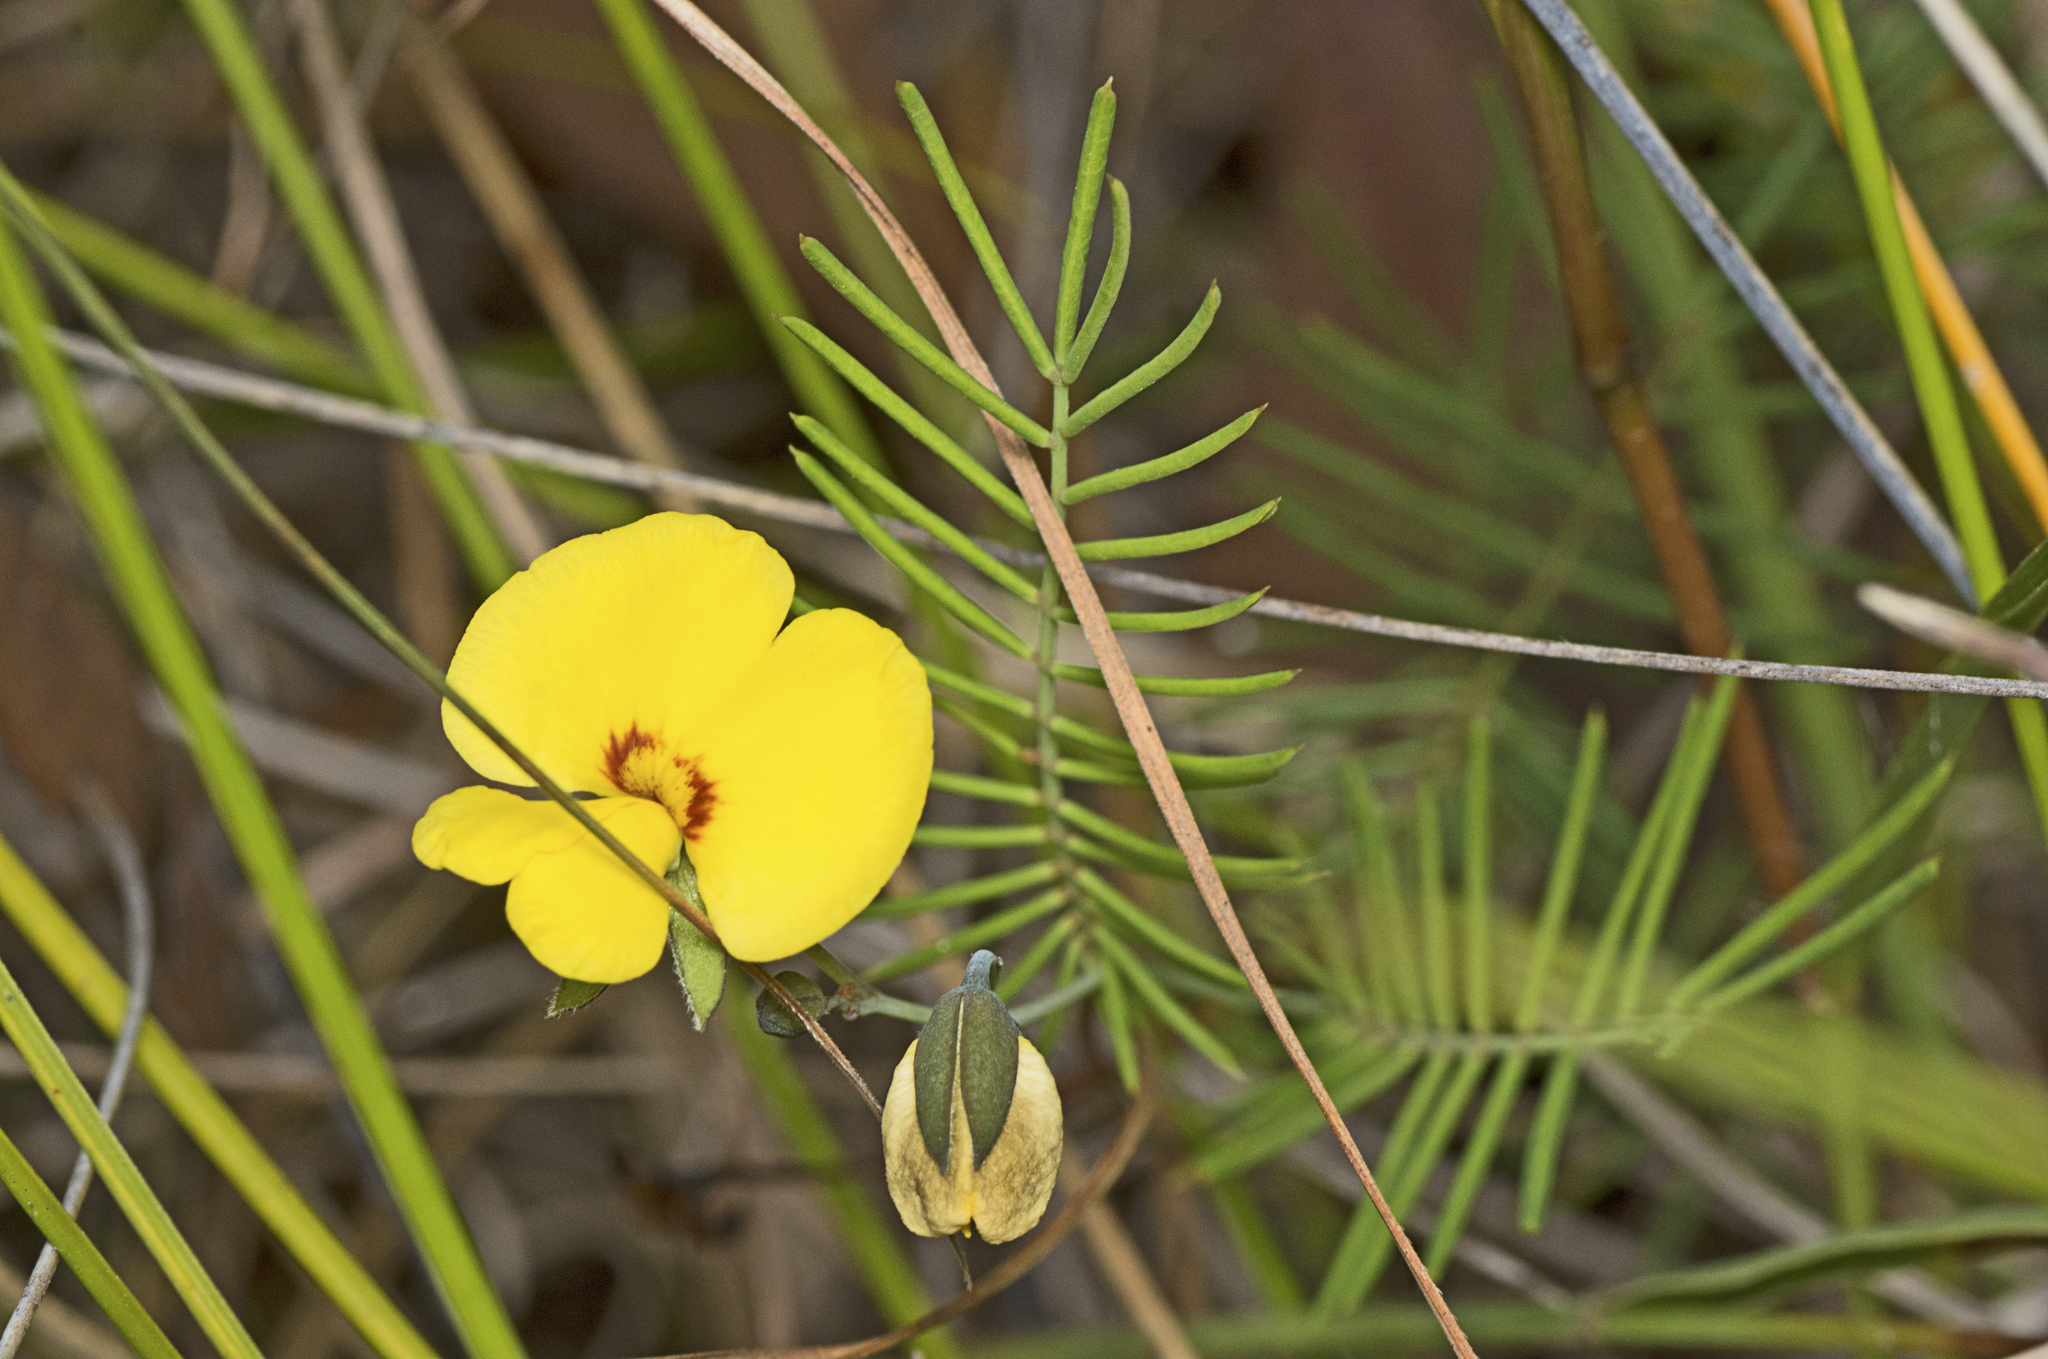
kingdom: Plantae
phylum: Tracheophyta
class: Magnoliopsida
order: Fabales
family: Fabaceae
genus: Gompholobium
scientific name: Gompholobium pinnatum
